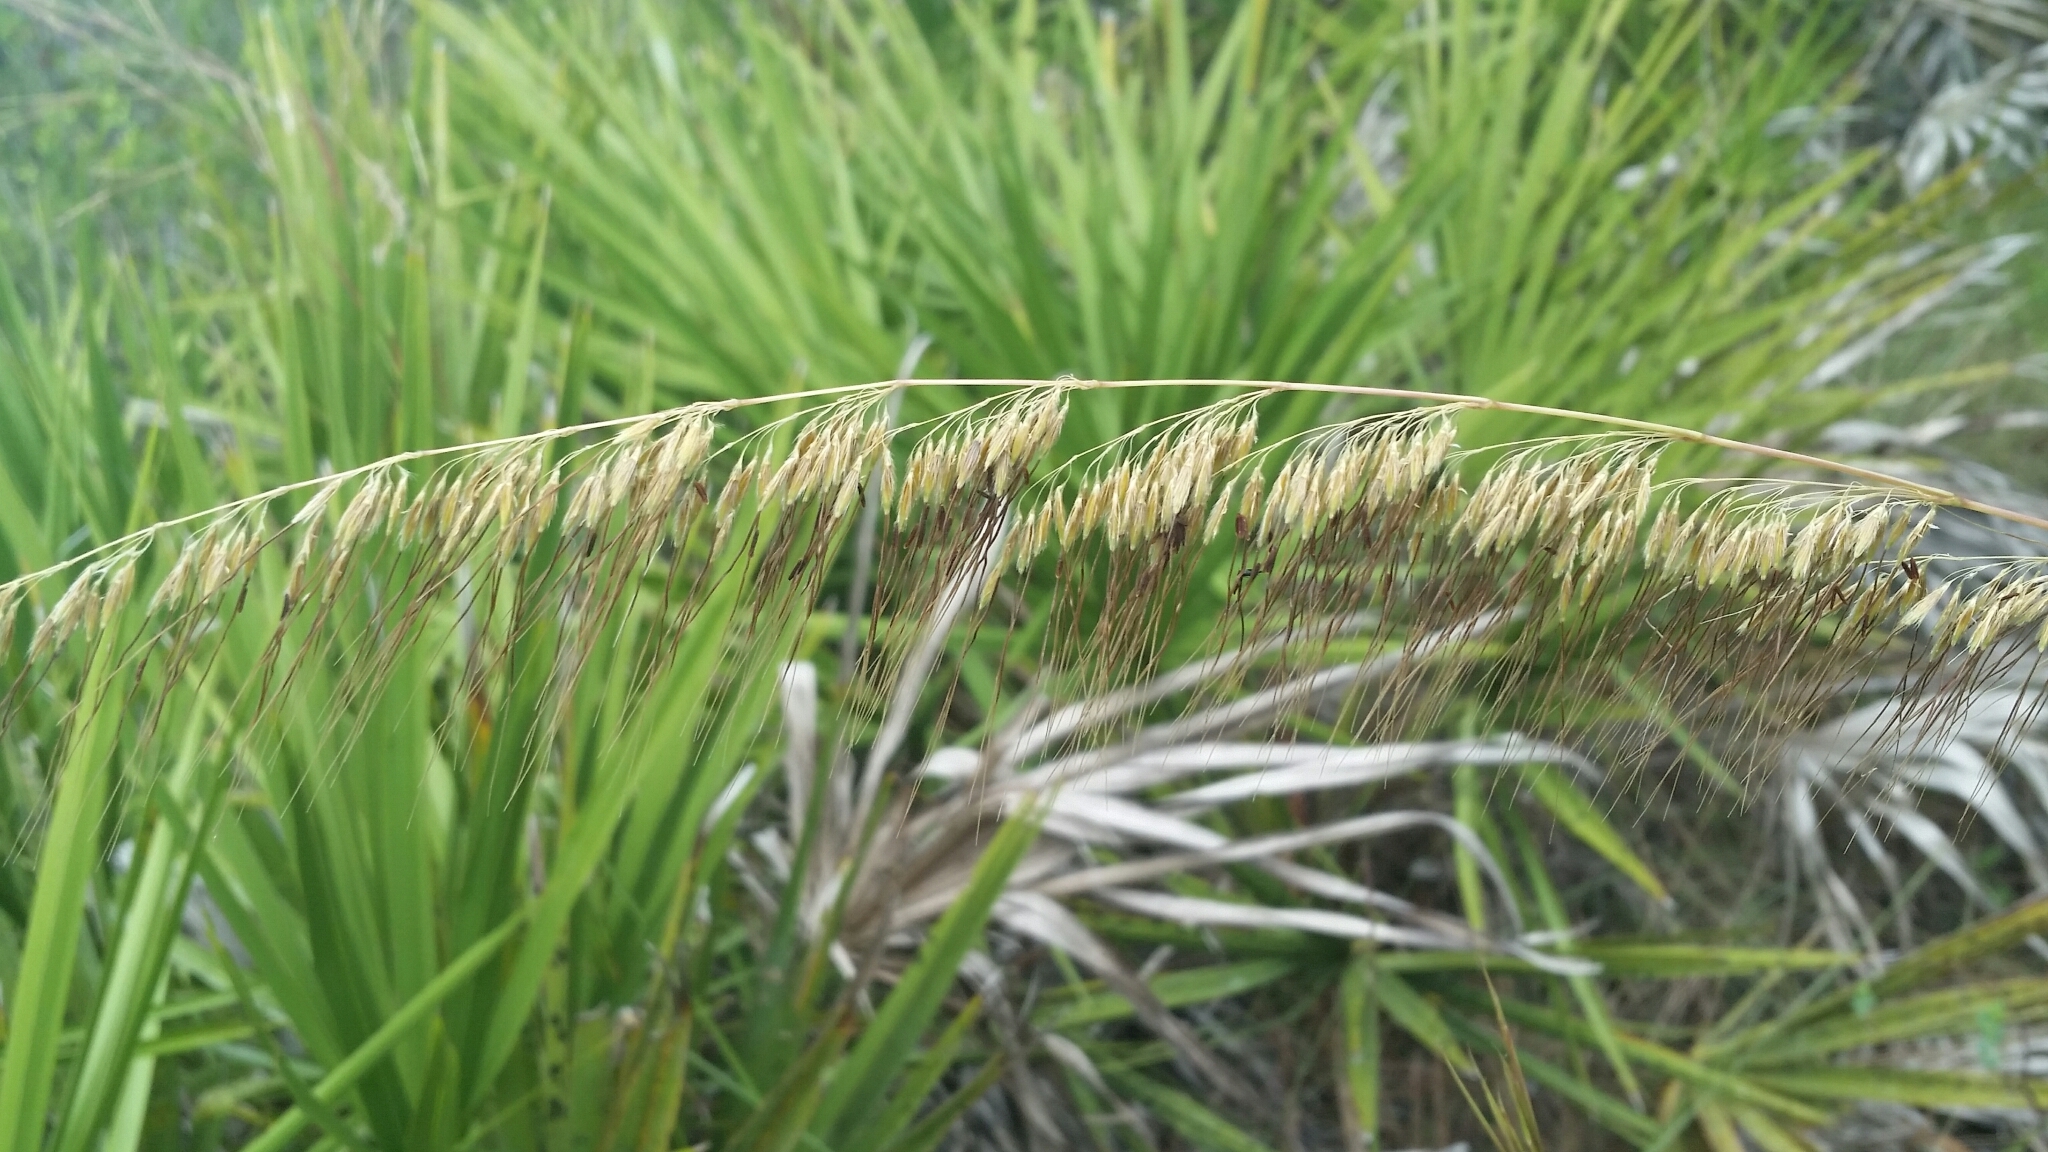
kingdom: Plantae
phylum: Tracheophyta
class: Liliopsida
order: Poales
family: Poaceae
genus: Sorghastrum
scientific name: Sorghastrum secundum
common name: Lopsided indian grass
